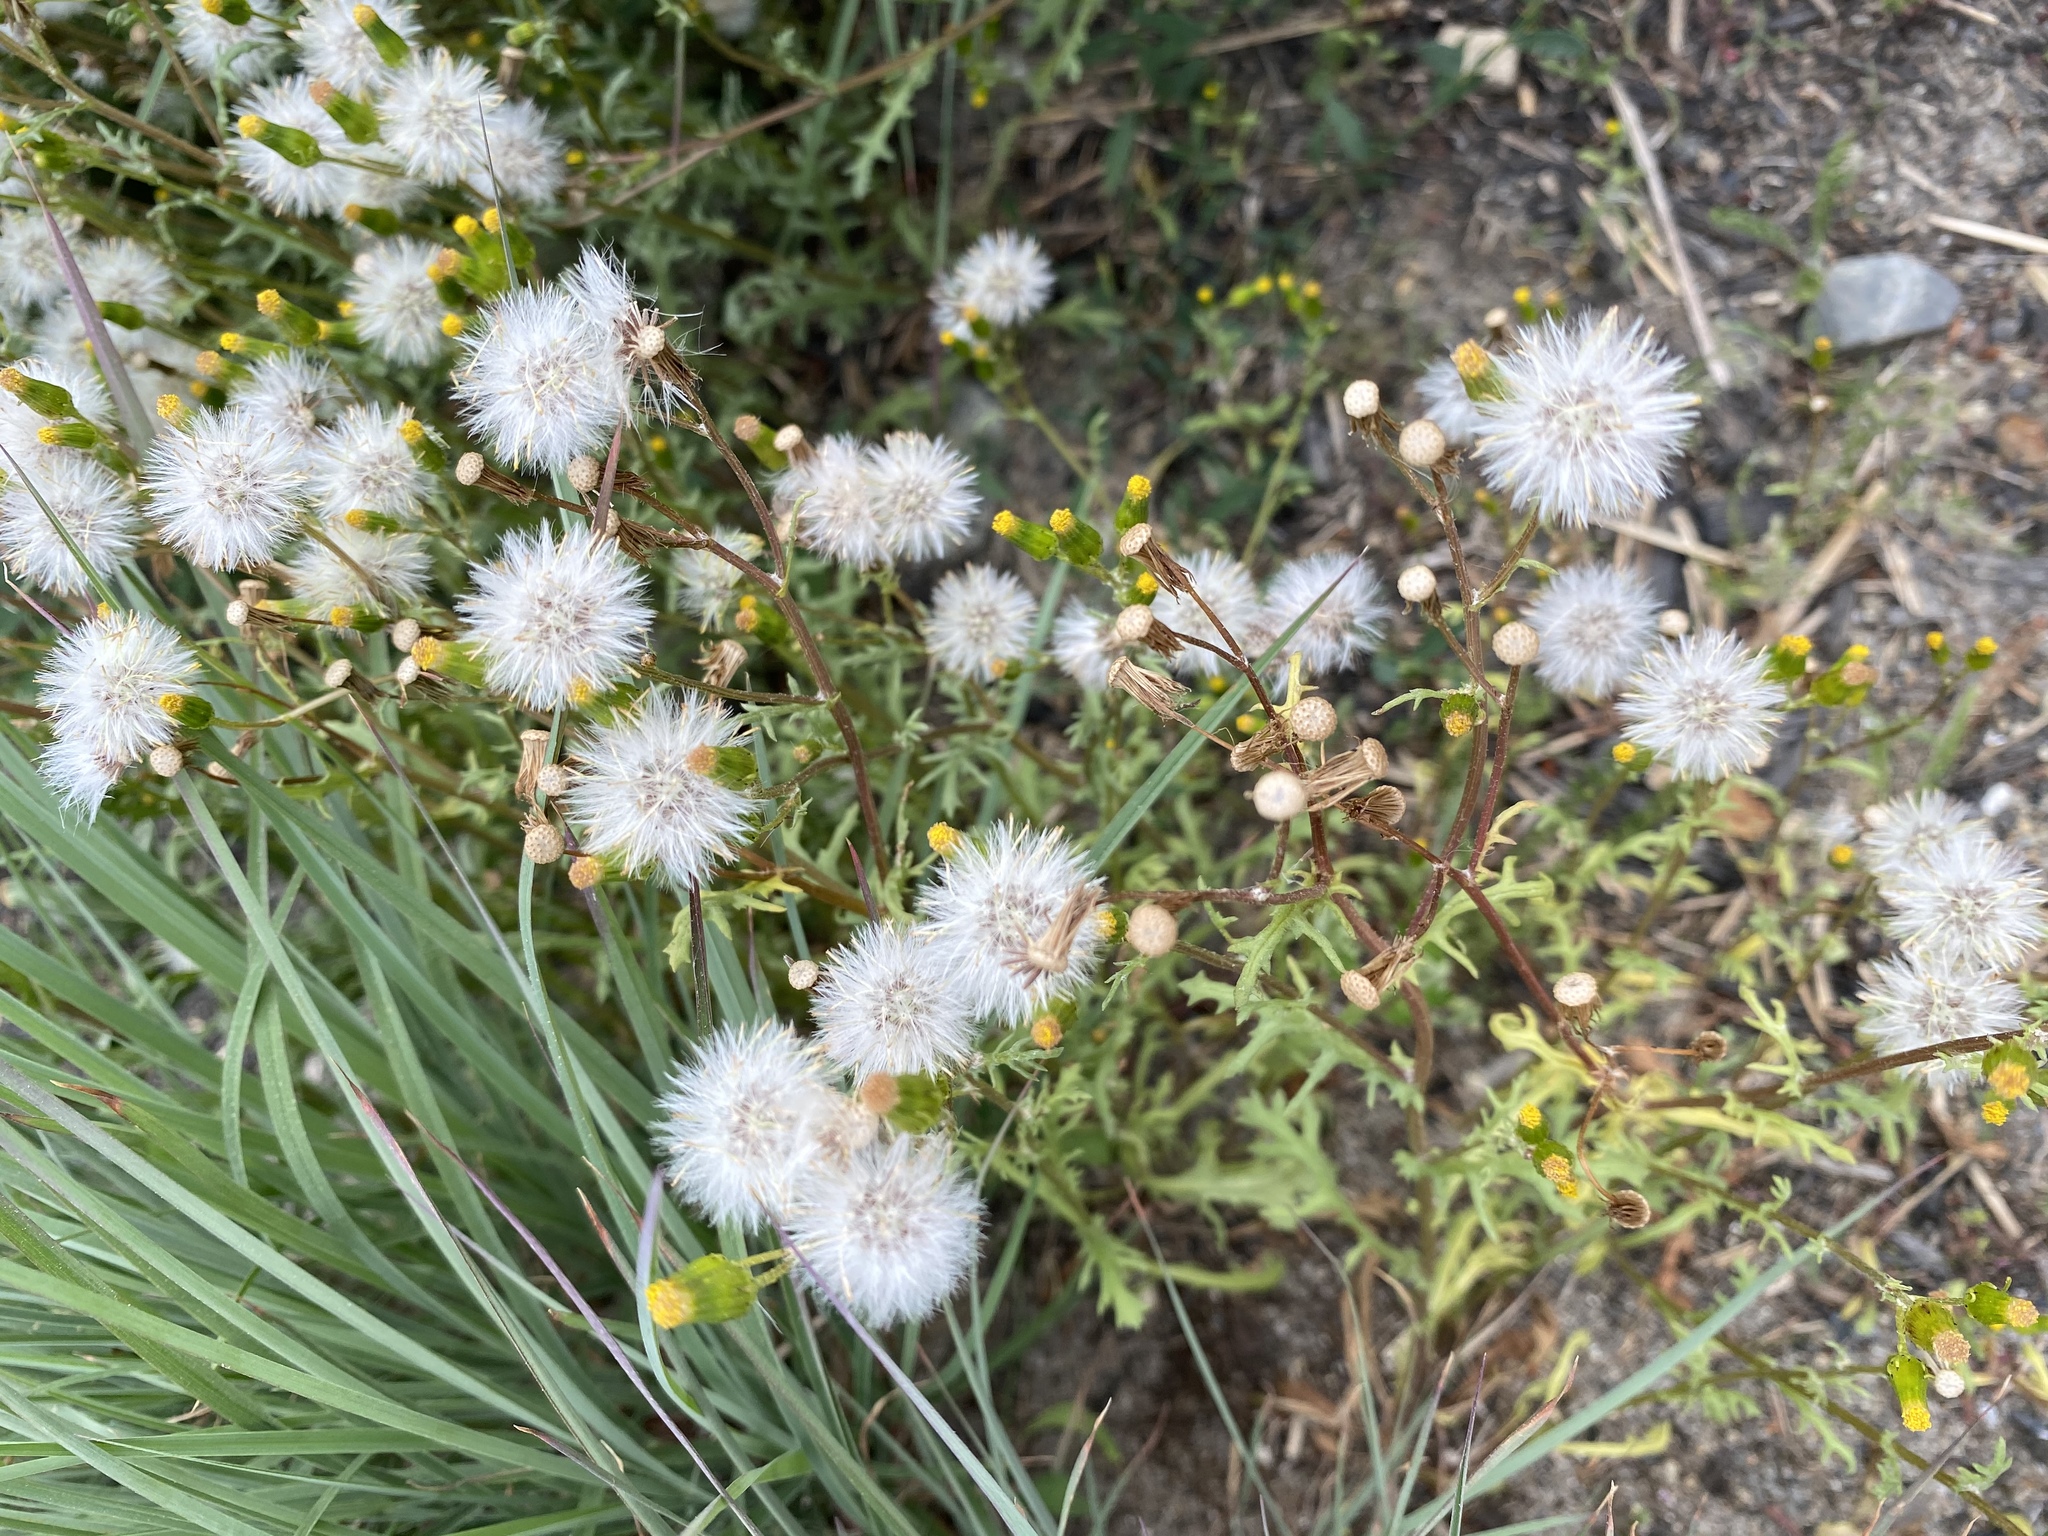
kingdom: Plantae
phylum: Tracheophyta
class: Magnoliopsida
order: Asterales
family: Asteraceae
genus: Senecio
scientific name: Senecio vulgaris
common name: Old-man-in-the-spring
